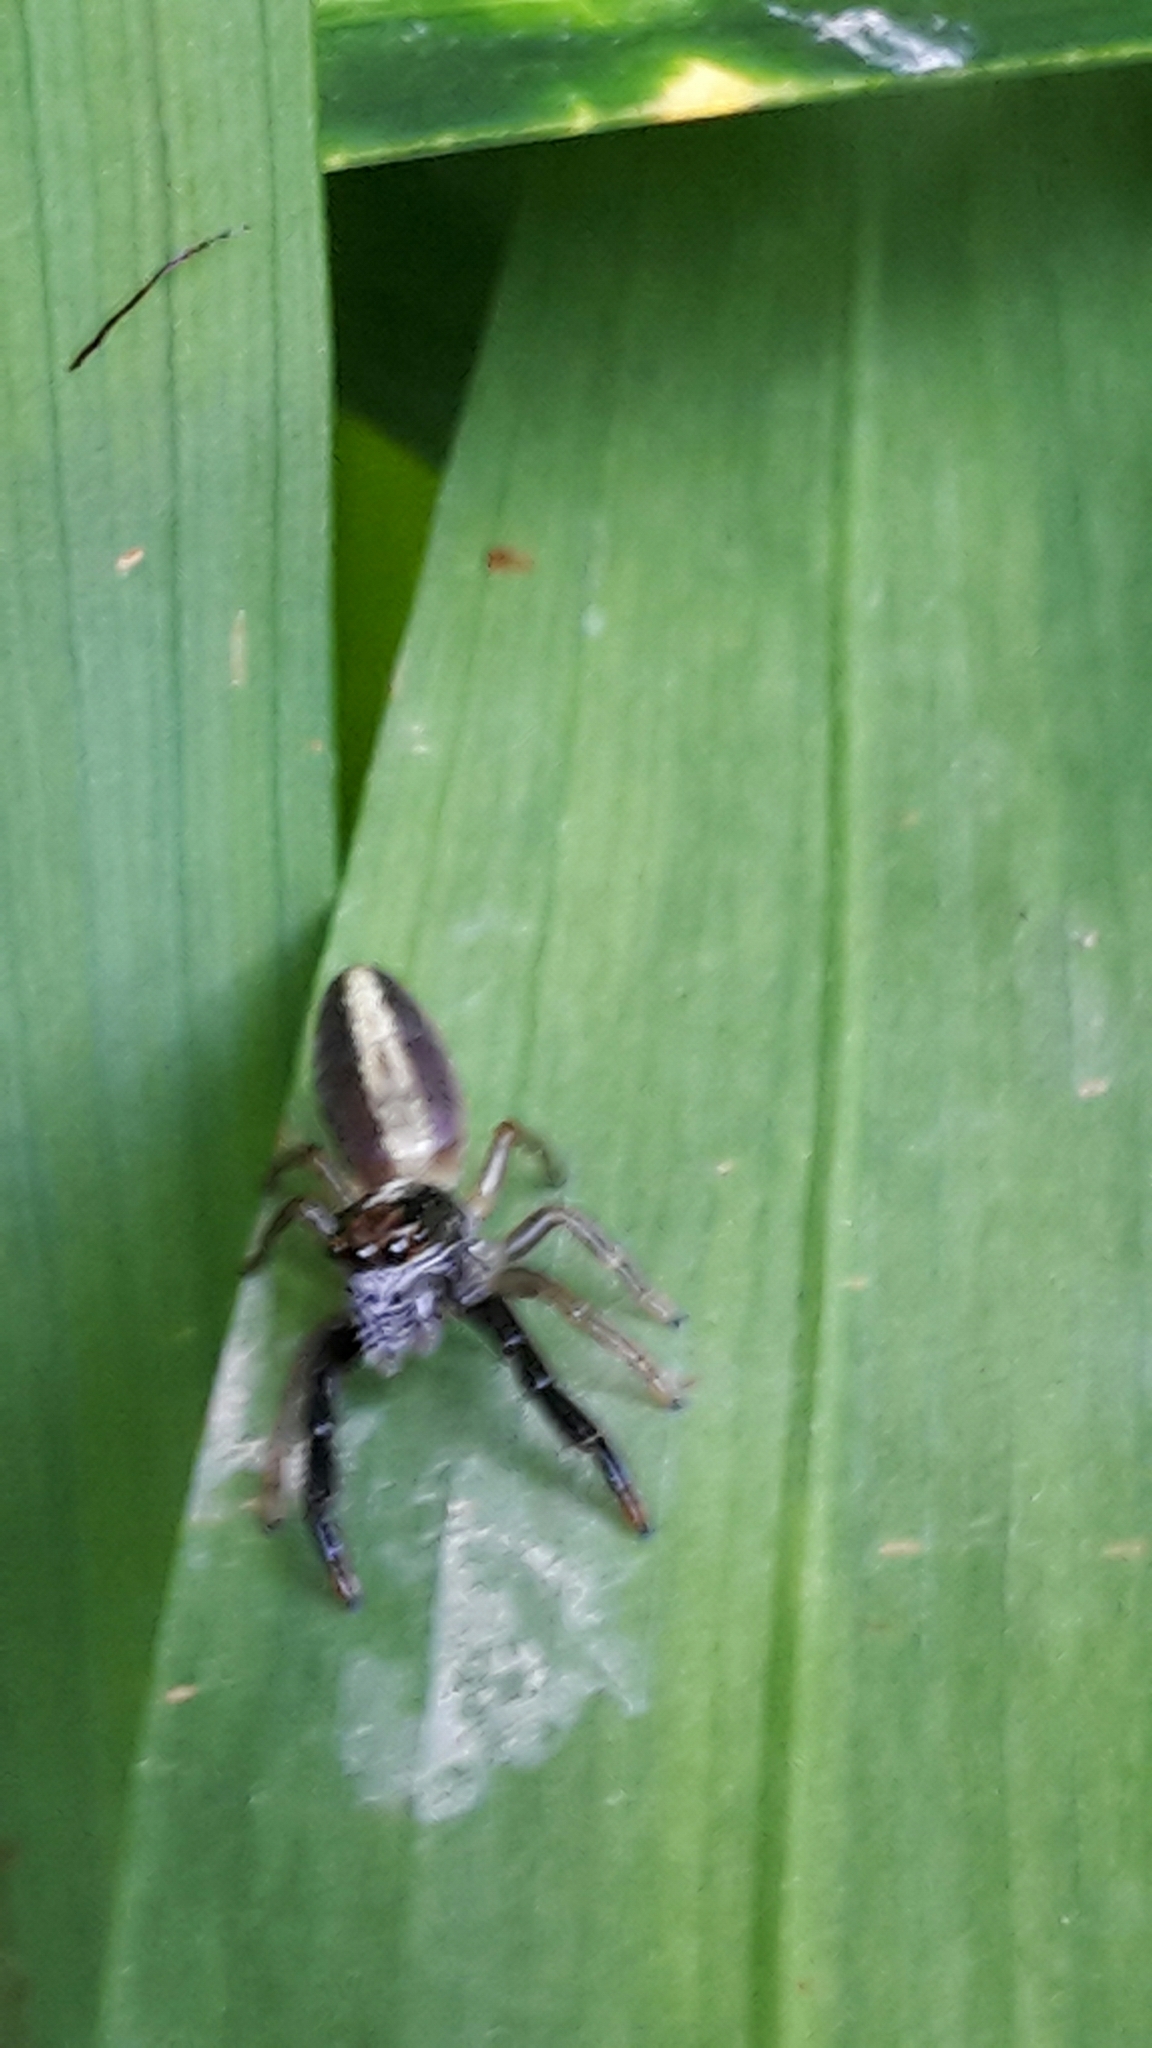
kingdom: Animalia
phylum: Arthropoda
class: Arachnida
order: Araneae
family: Salticidae
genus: Trite
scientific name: Trite planiceps
